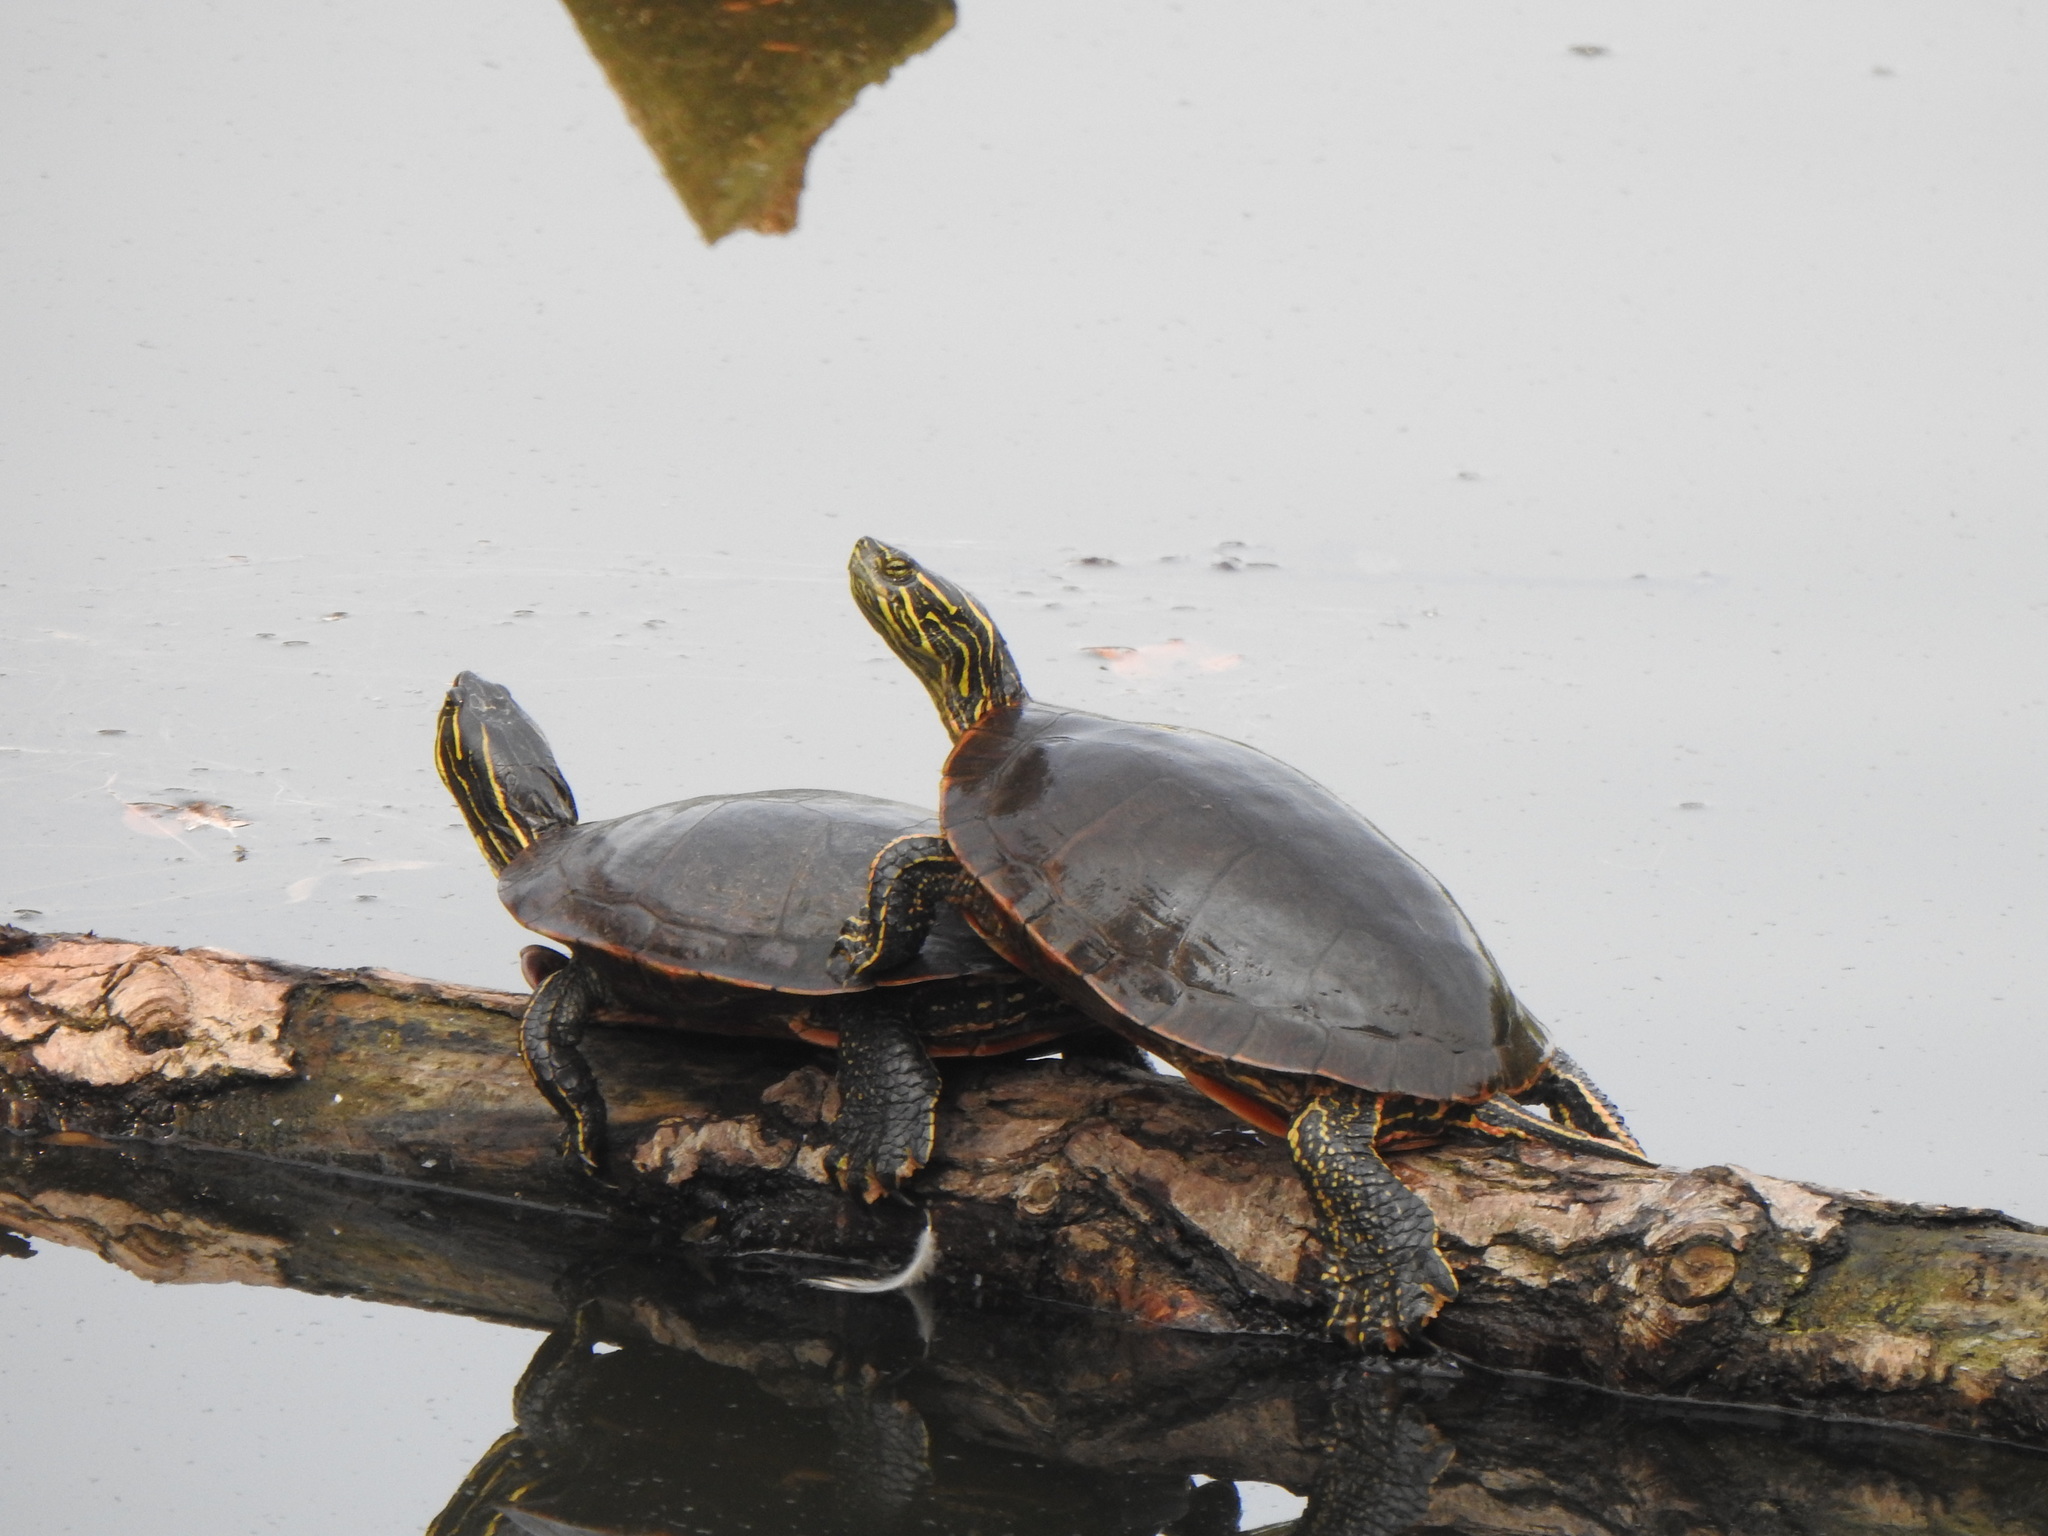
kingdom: Animalia
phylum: Chordata
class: Testudines
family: Emydidae
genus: Chrysemys
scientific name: Chrysemys picta
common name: Painted turtle
